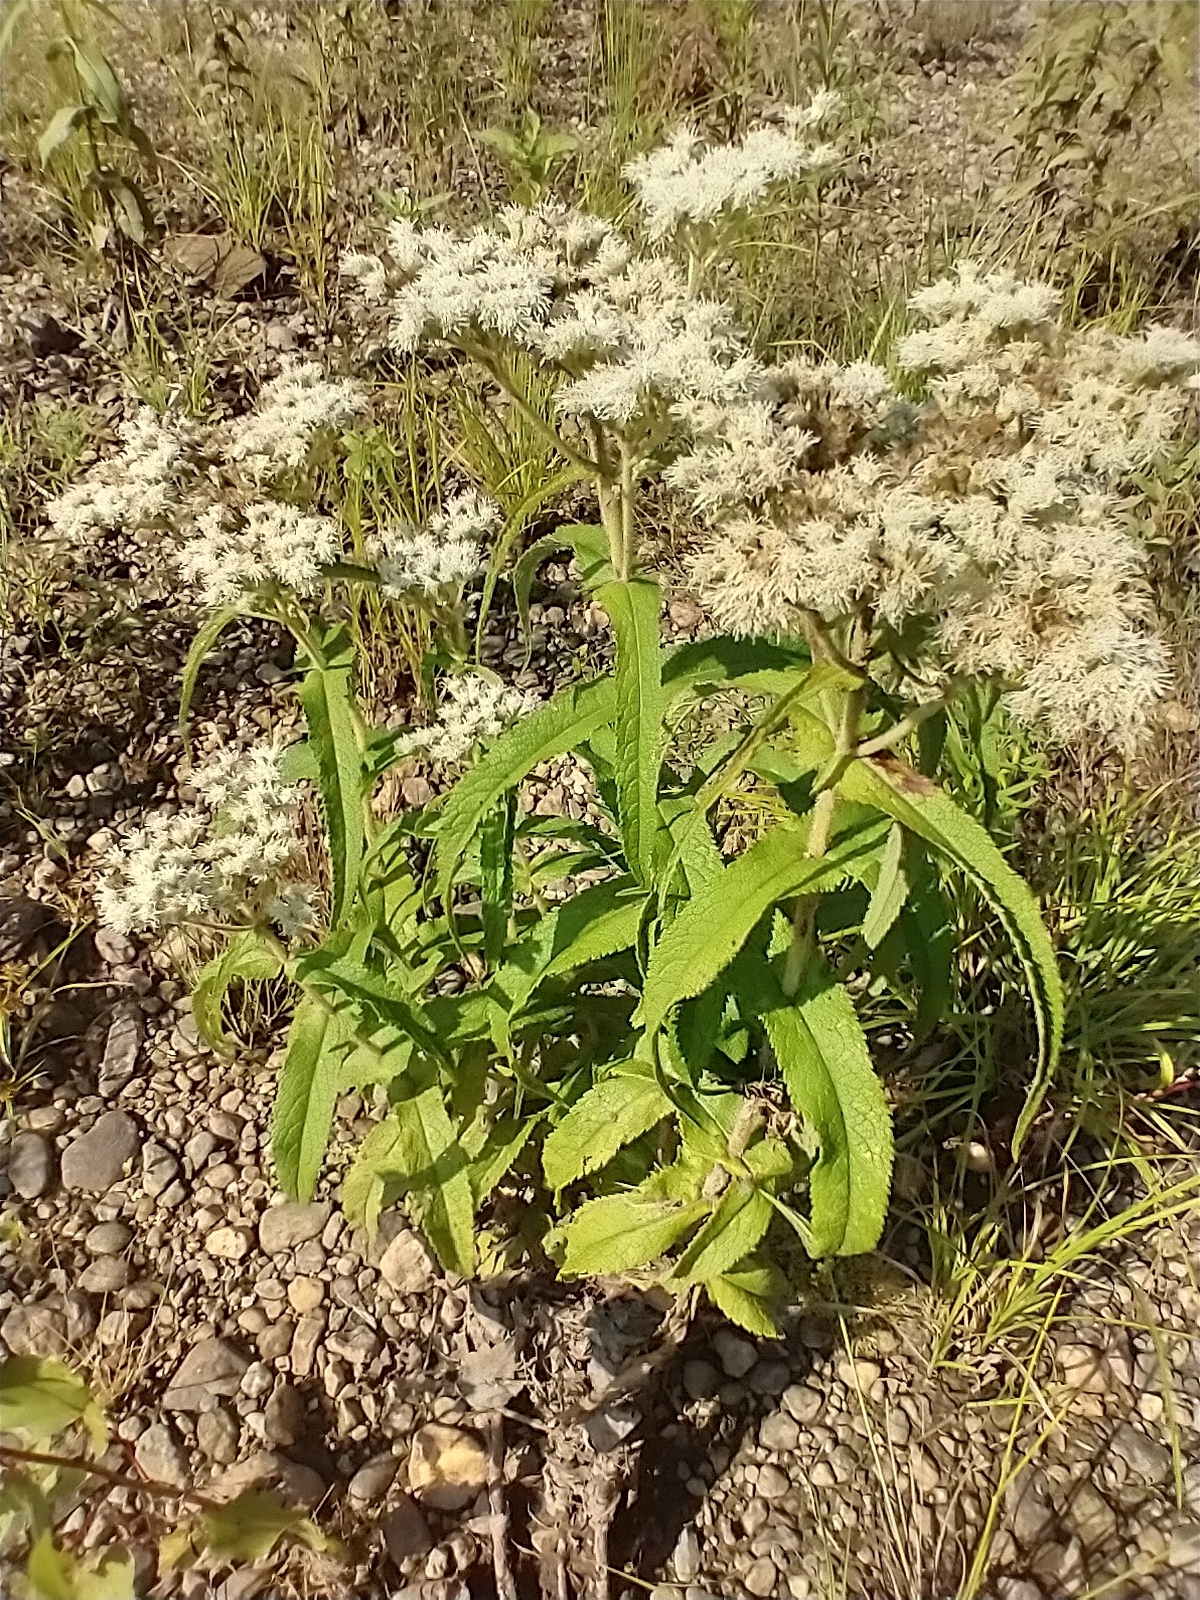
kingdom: Plantae
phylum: Tracheophyta
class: Magnoliopsida
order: Asterales
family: Asteraceae
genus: Eupatorium
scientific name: Eupatorium perfoliatum
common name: Boneset
